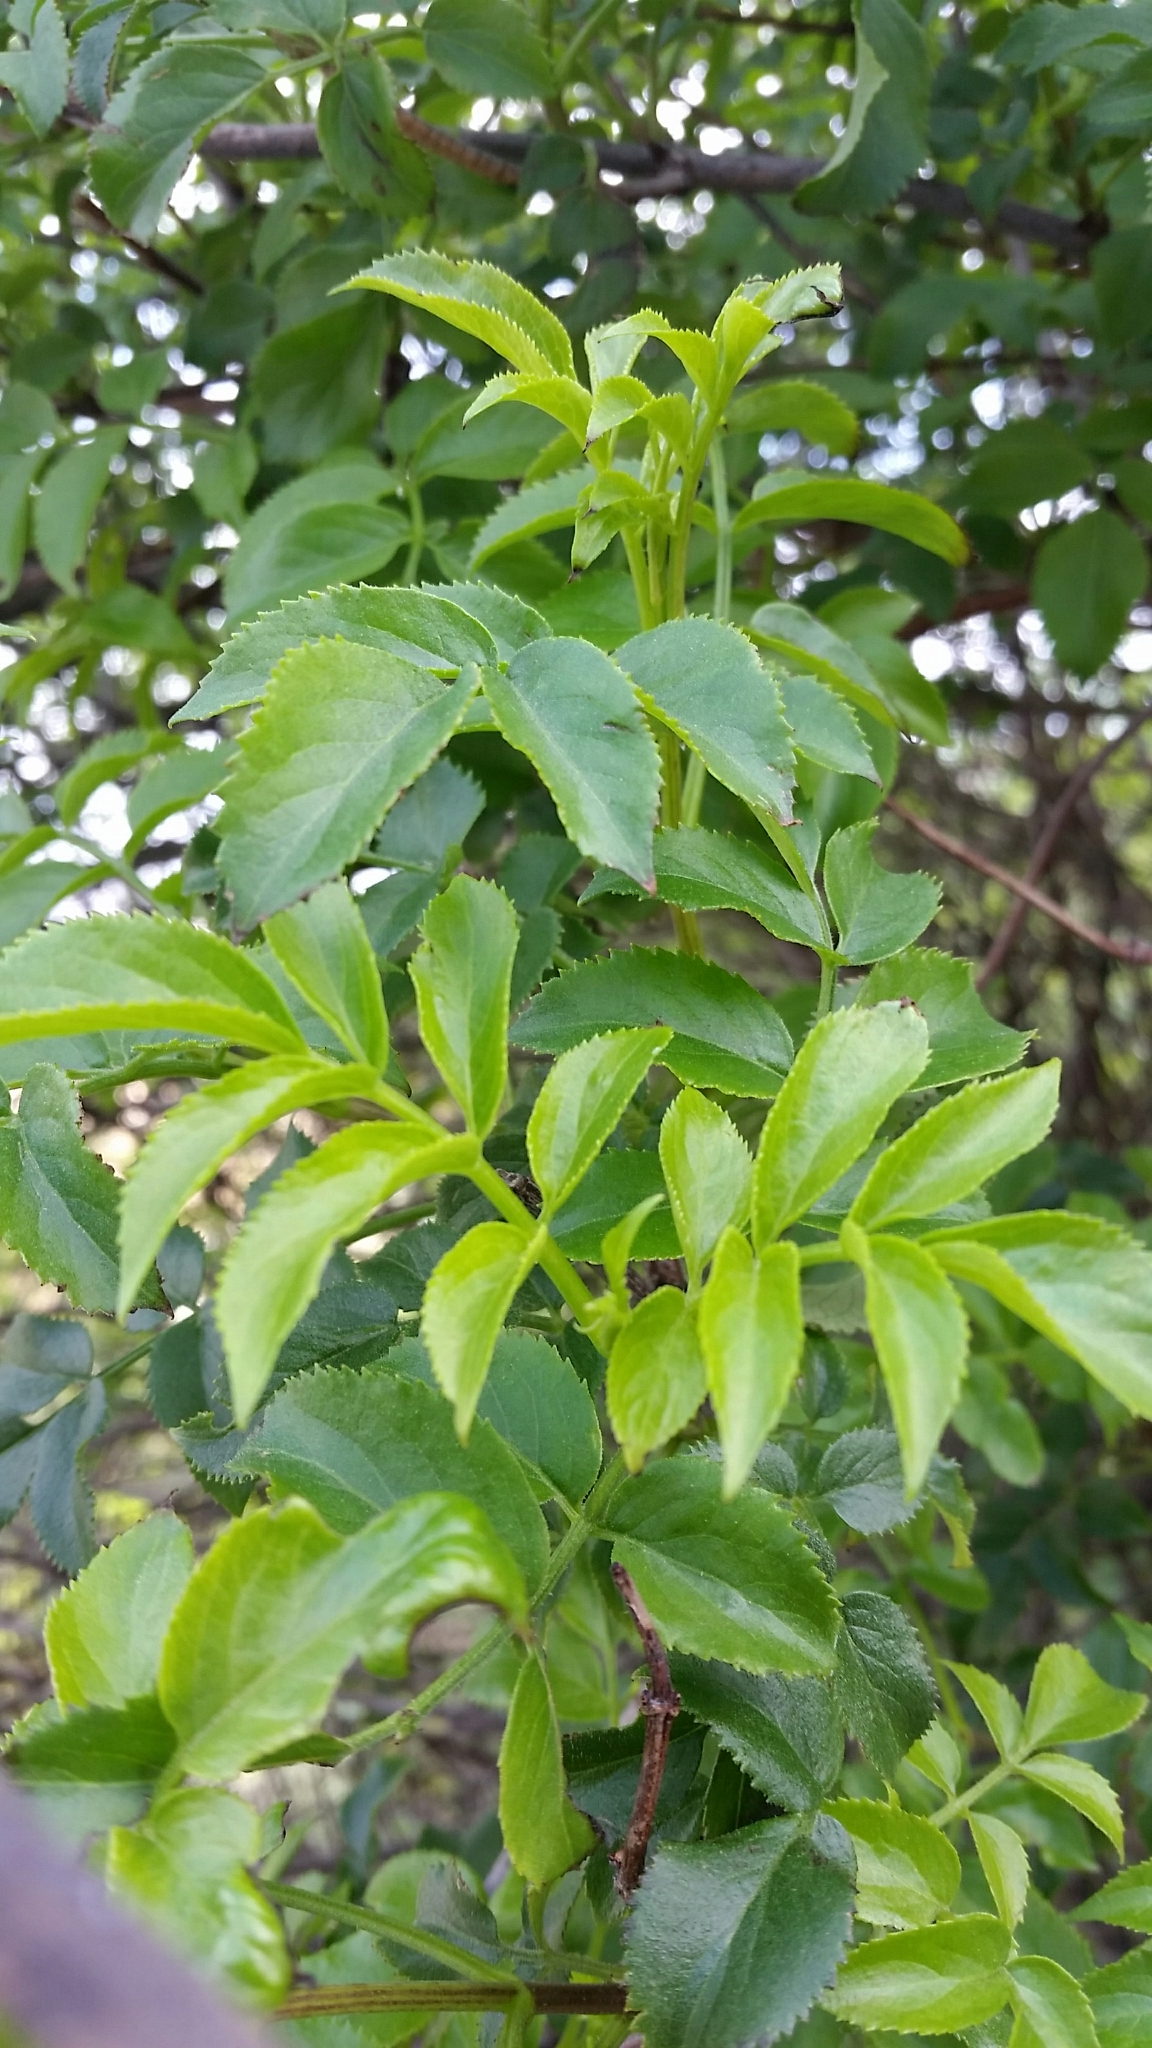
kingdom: Plantae
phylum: Tracheophyta
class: Magnoliopsida
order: Dipsacales
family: Viburnaceae
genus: Sambucus
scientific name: Sambucus cerulea
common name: Blue elder
